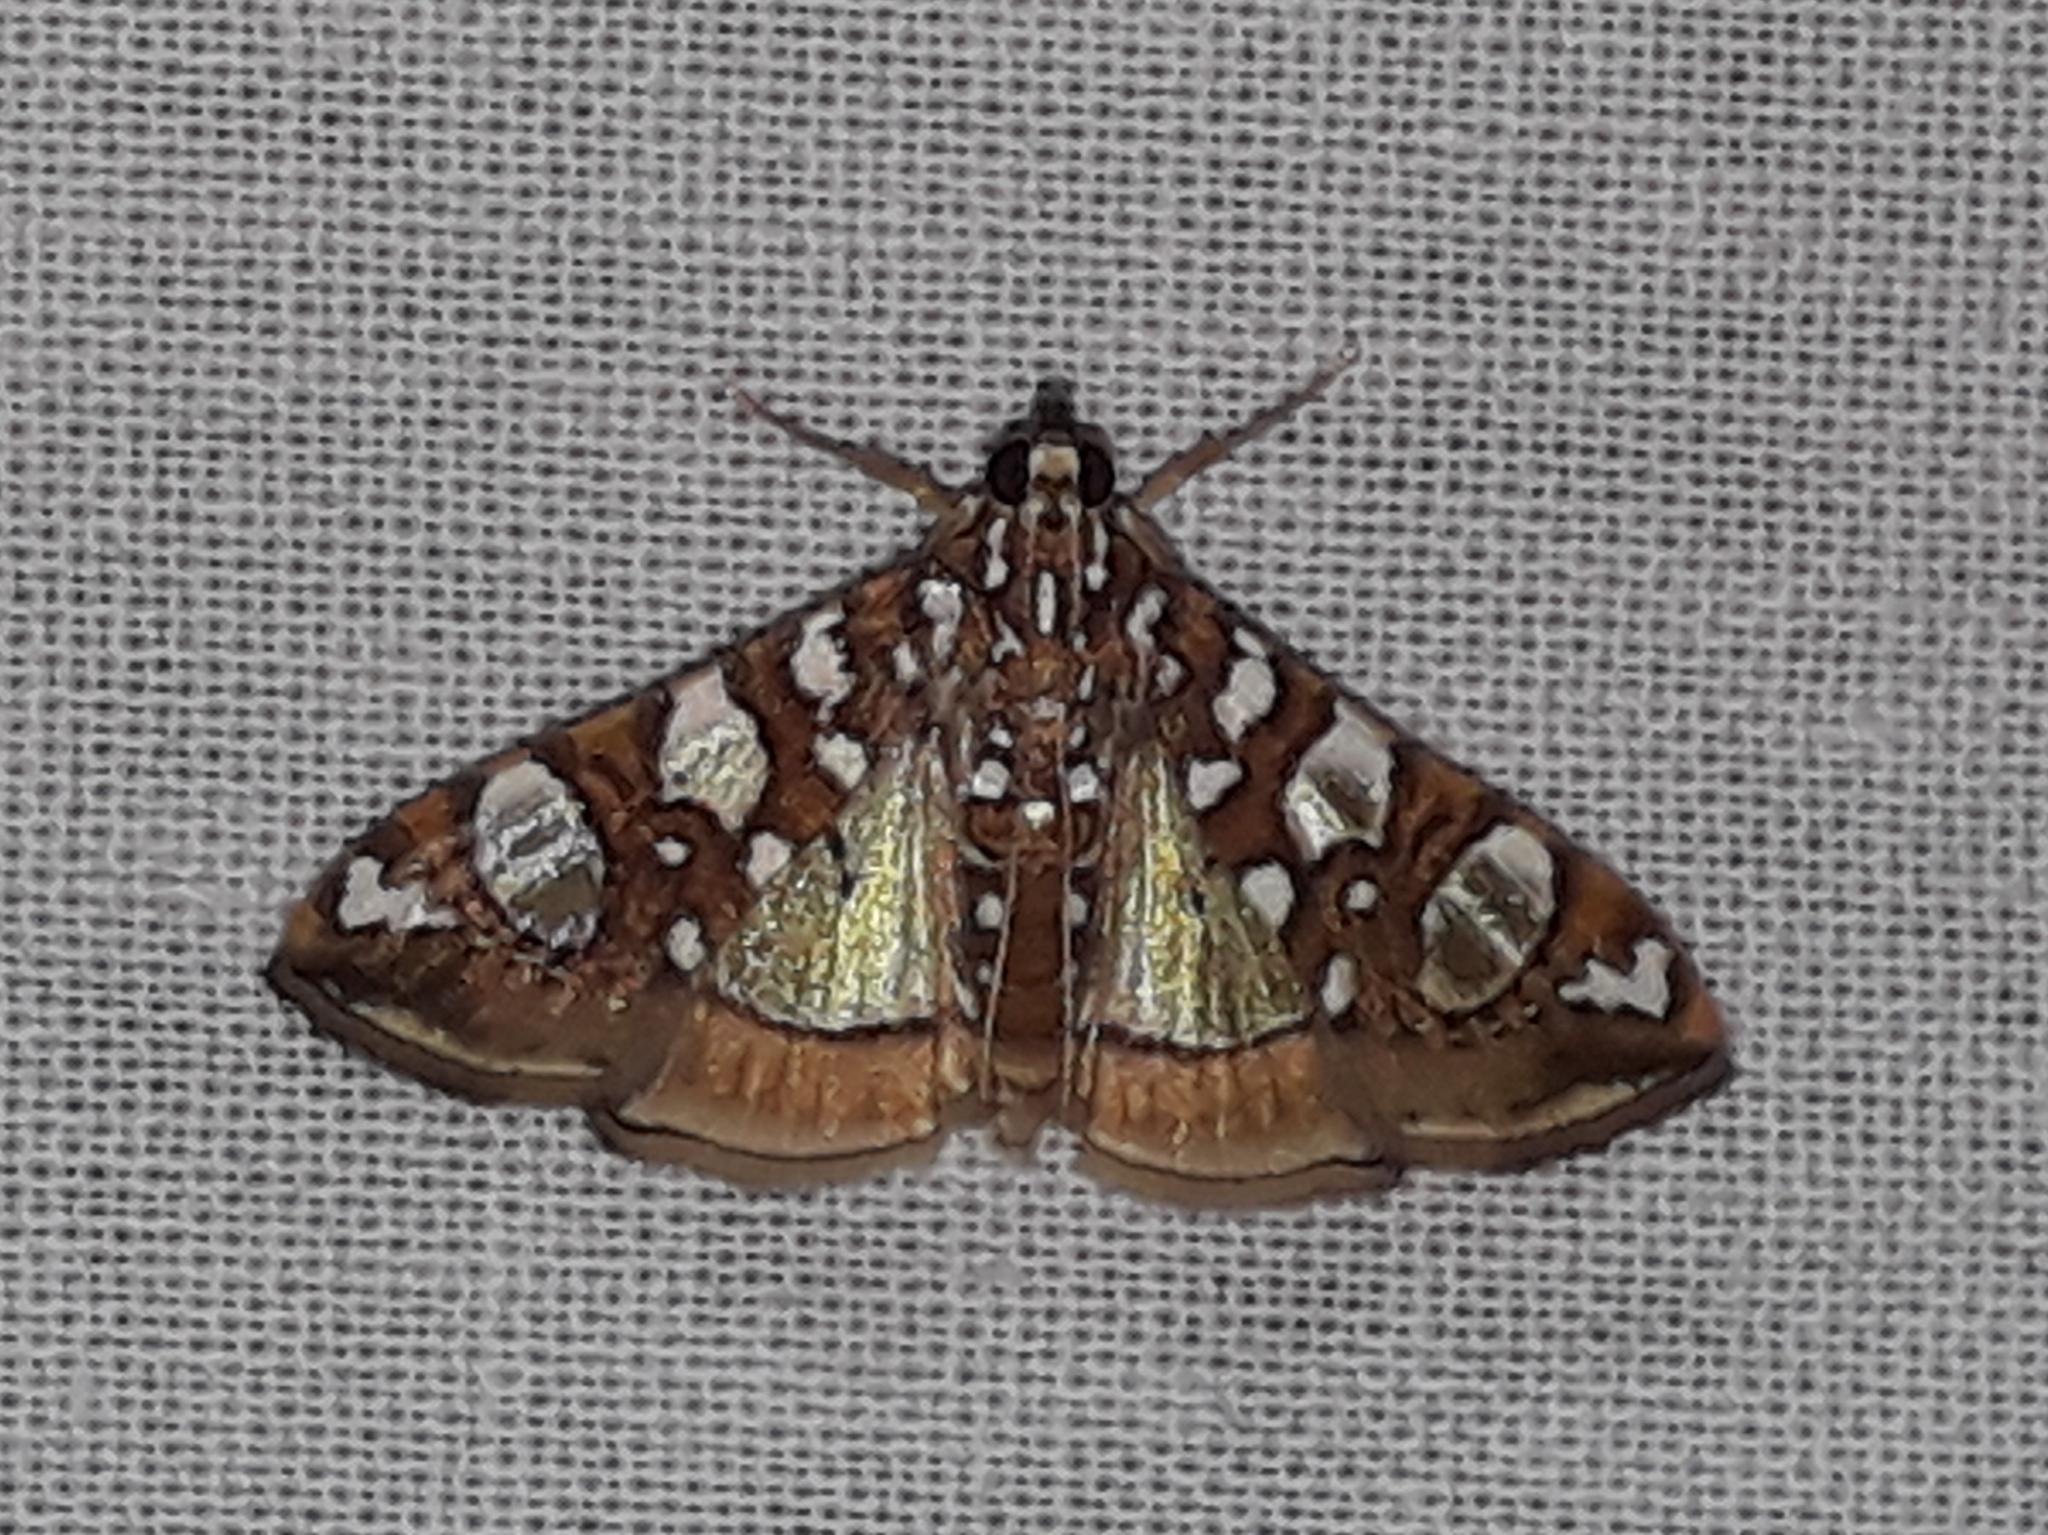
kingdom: Animalia
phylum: Arthropoda
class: Insecta
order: Lepidoptera
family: Crambidae
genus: Glyphodes
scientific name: Glyphodes sibillalis
